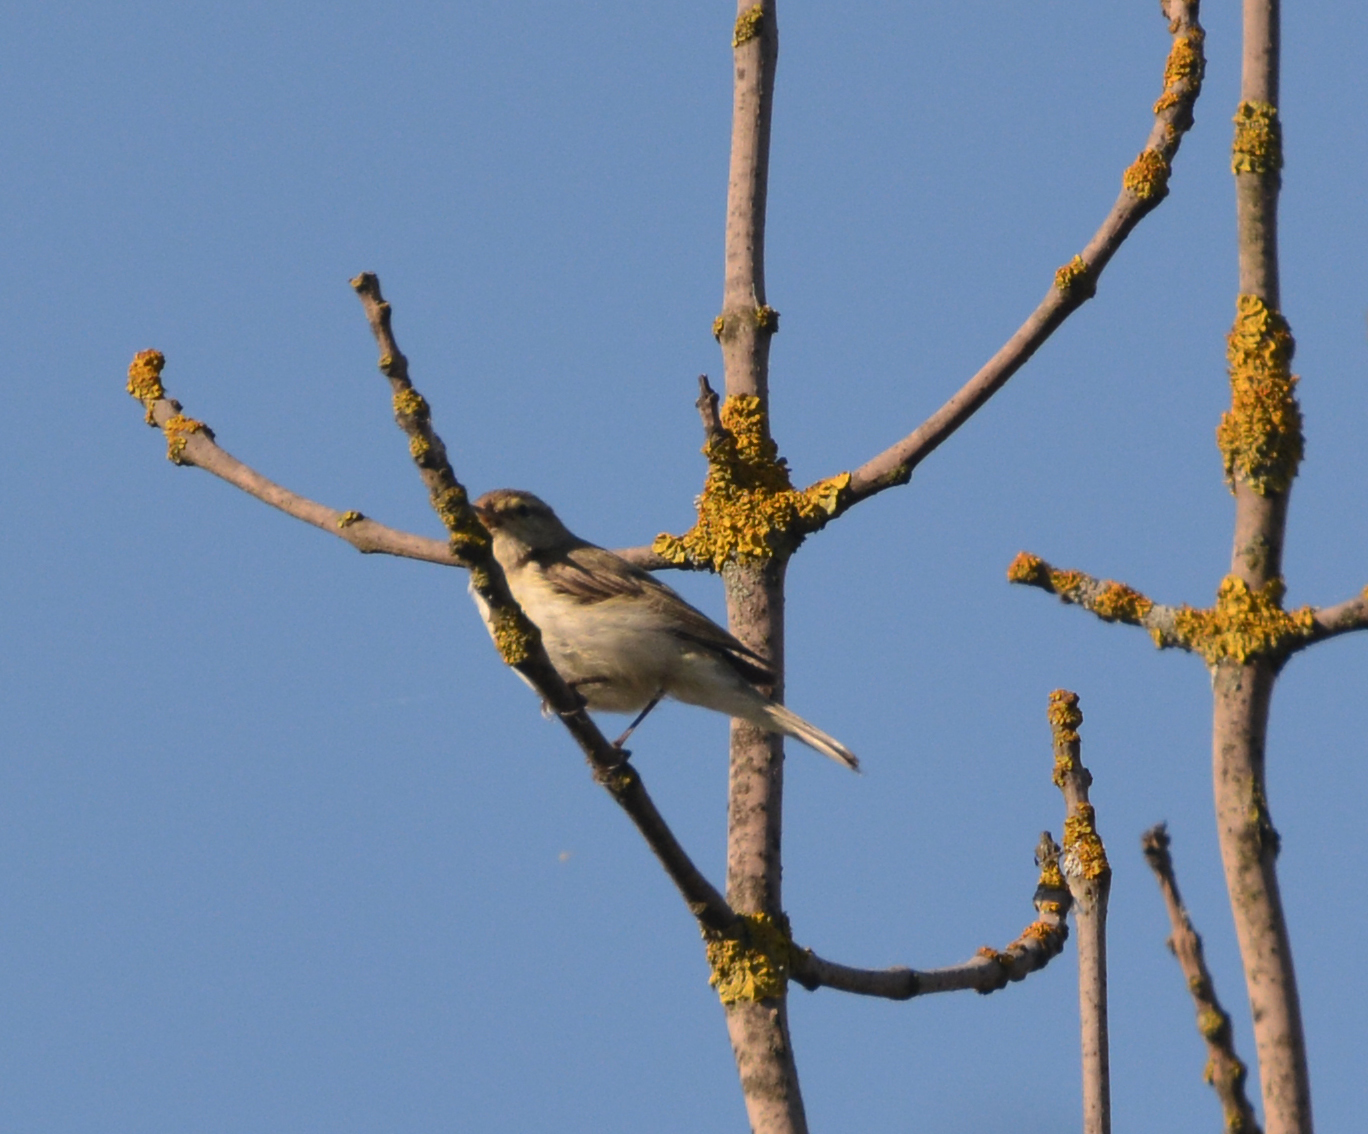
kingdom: Animalia
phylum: Chordata
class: Aves
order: Passeriformes
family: Phylloscopidae
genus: Phylloscopus
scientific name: Phylloscopus collybita
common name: Common chiffchaff
